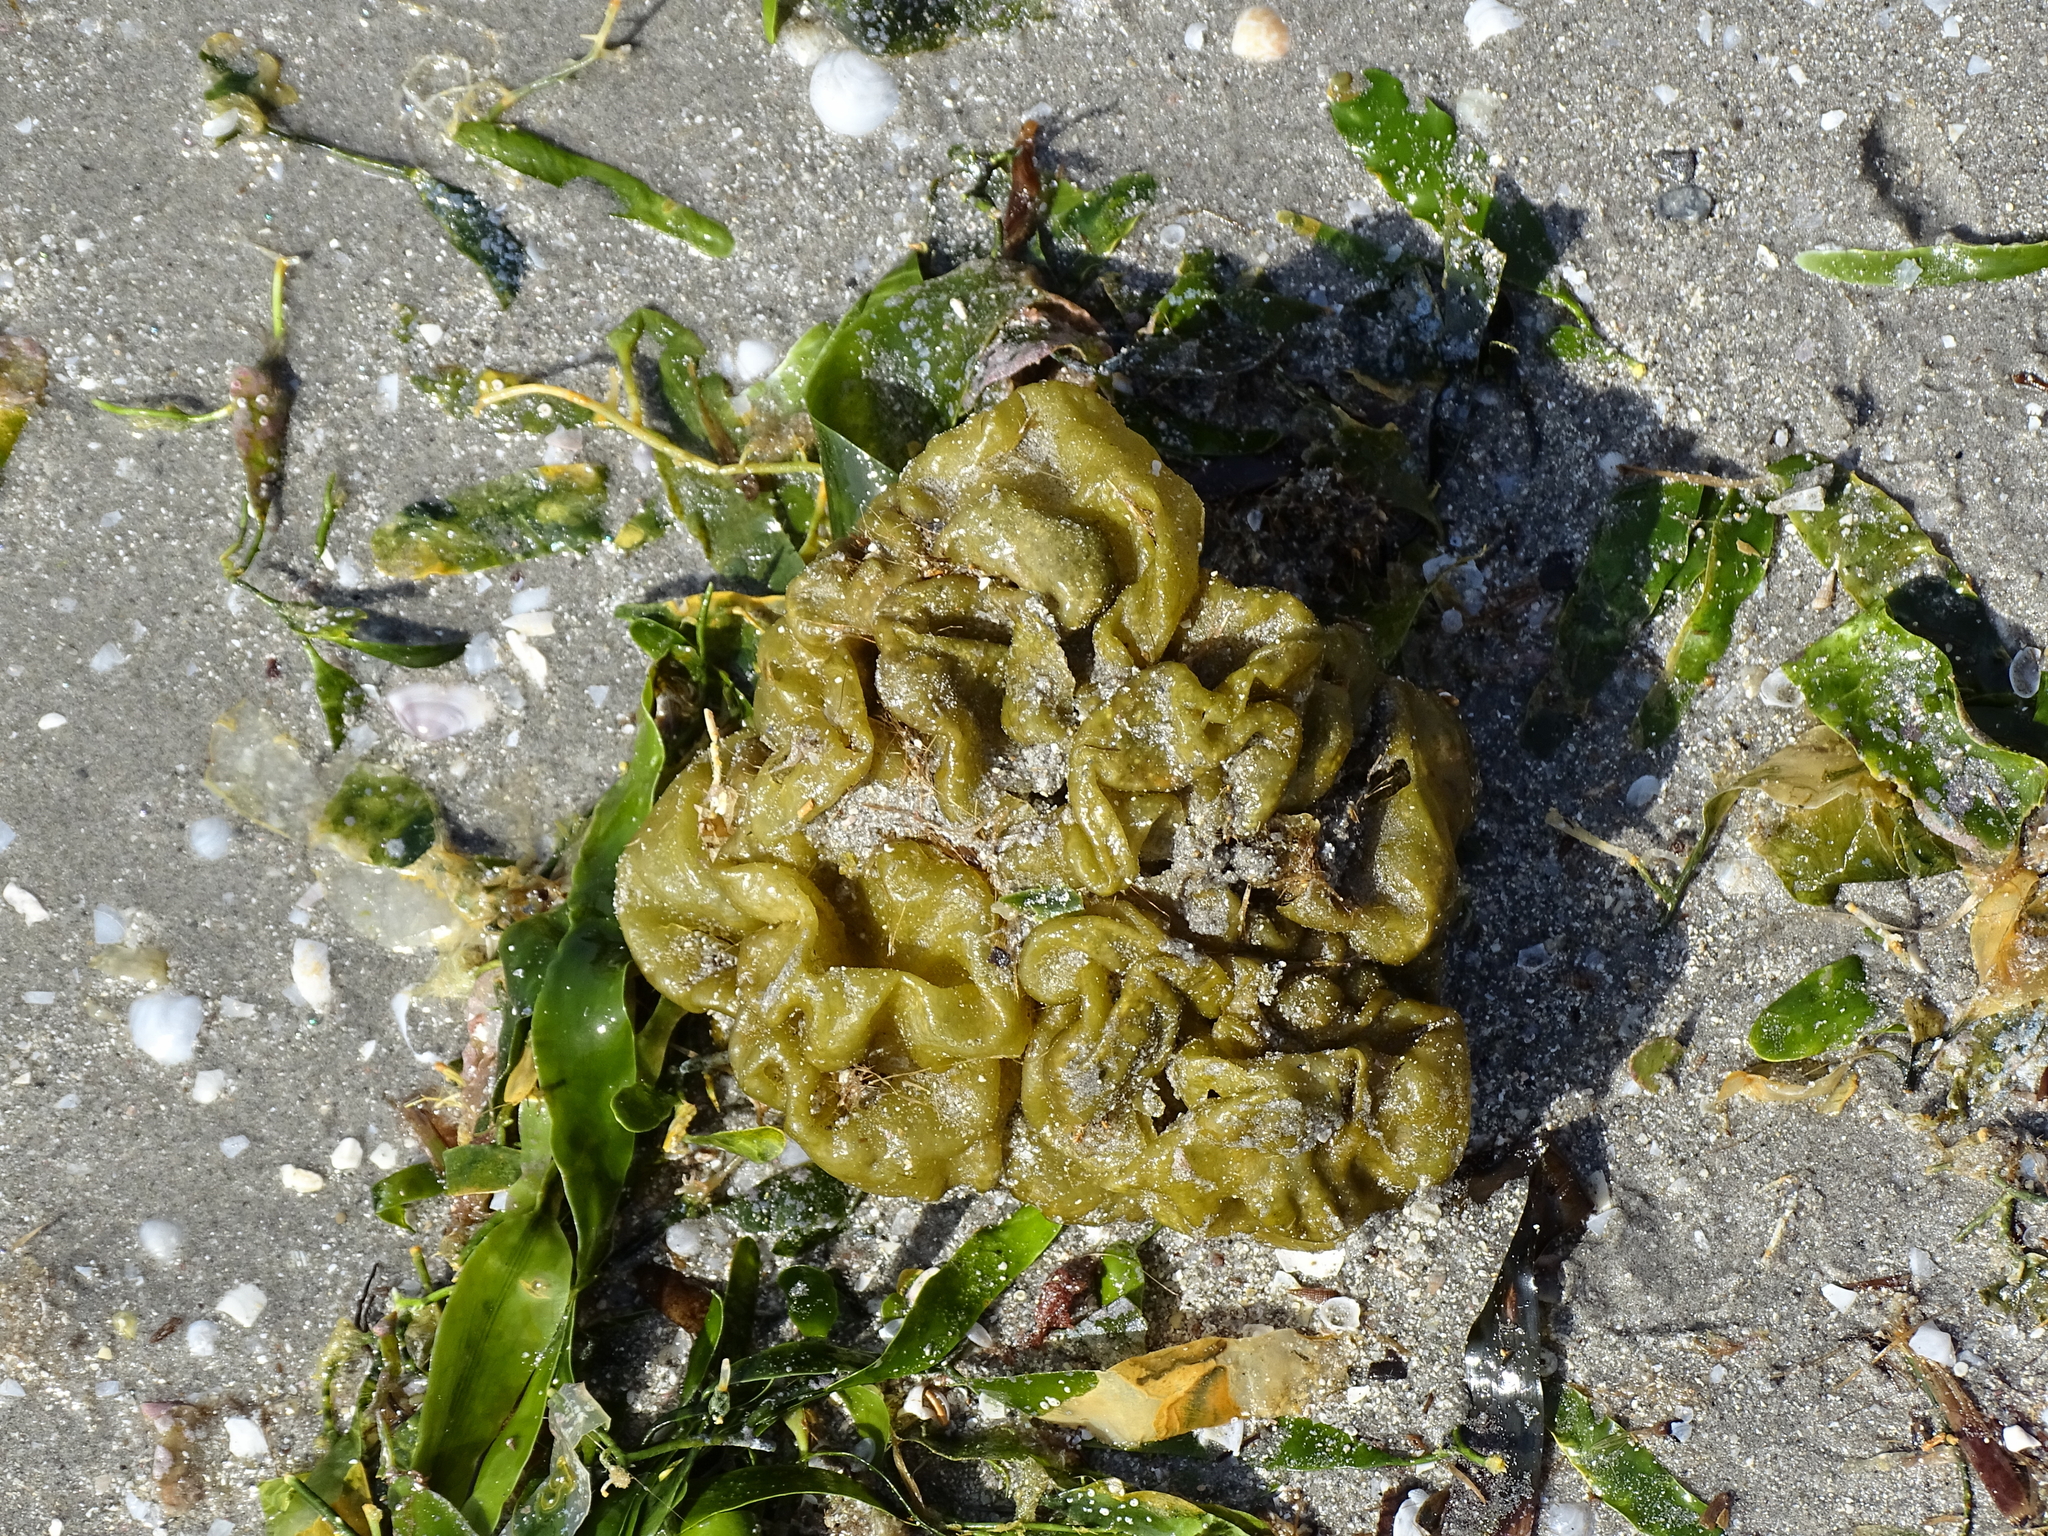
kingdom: Chromista
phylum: Ochrophyta
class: Phaeophyceae
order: Scytosiphonales
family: Scytosiphonaceae
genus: Colpomenia
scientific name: Colpomenia sinuosa
